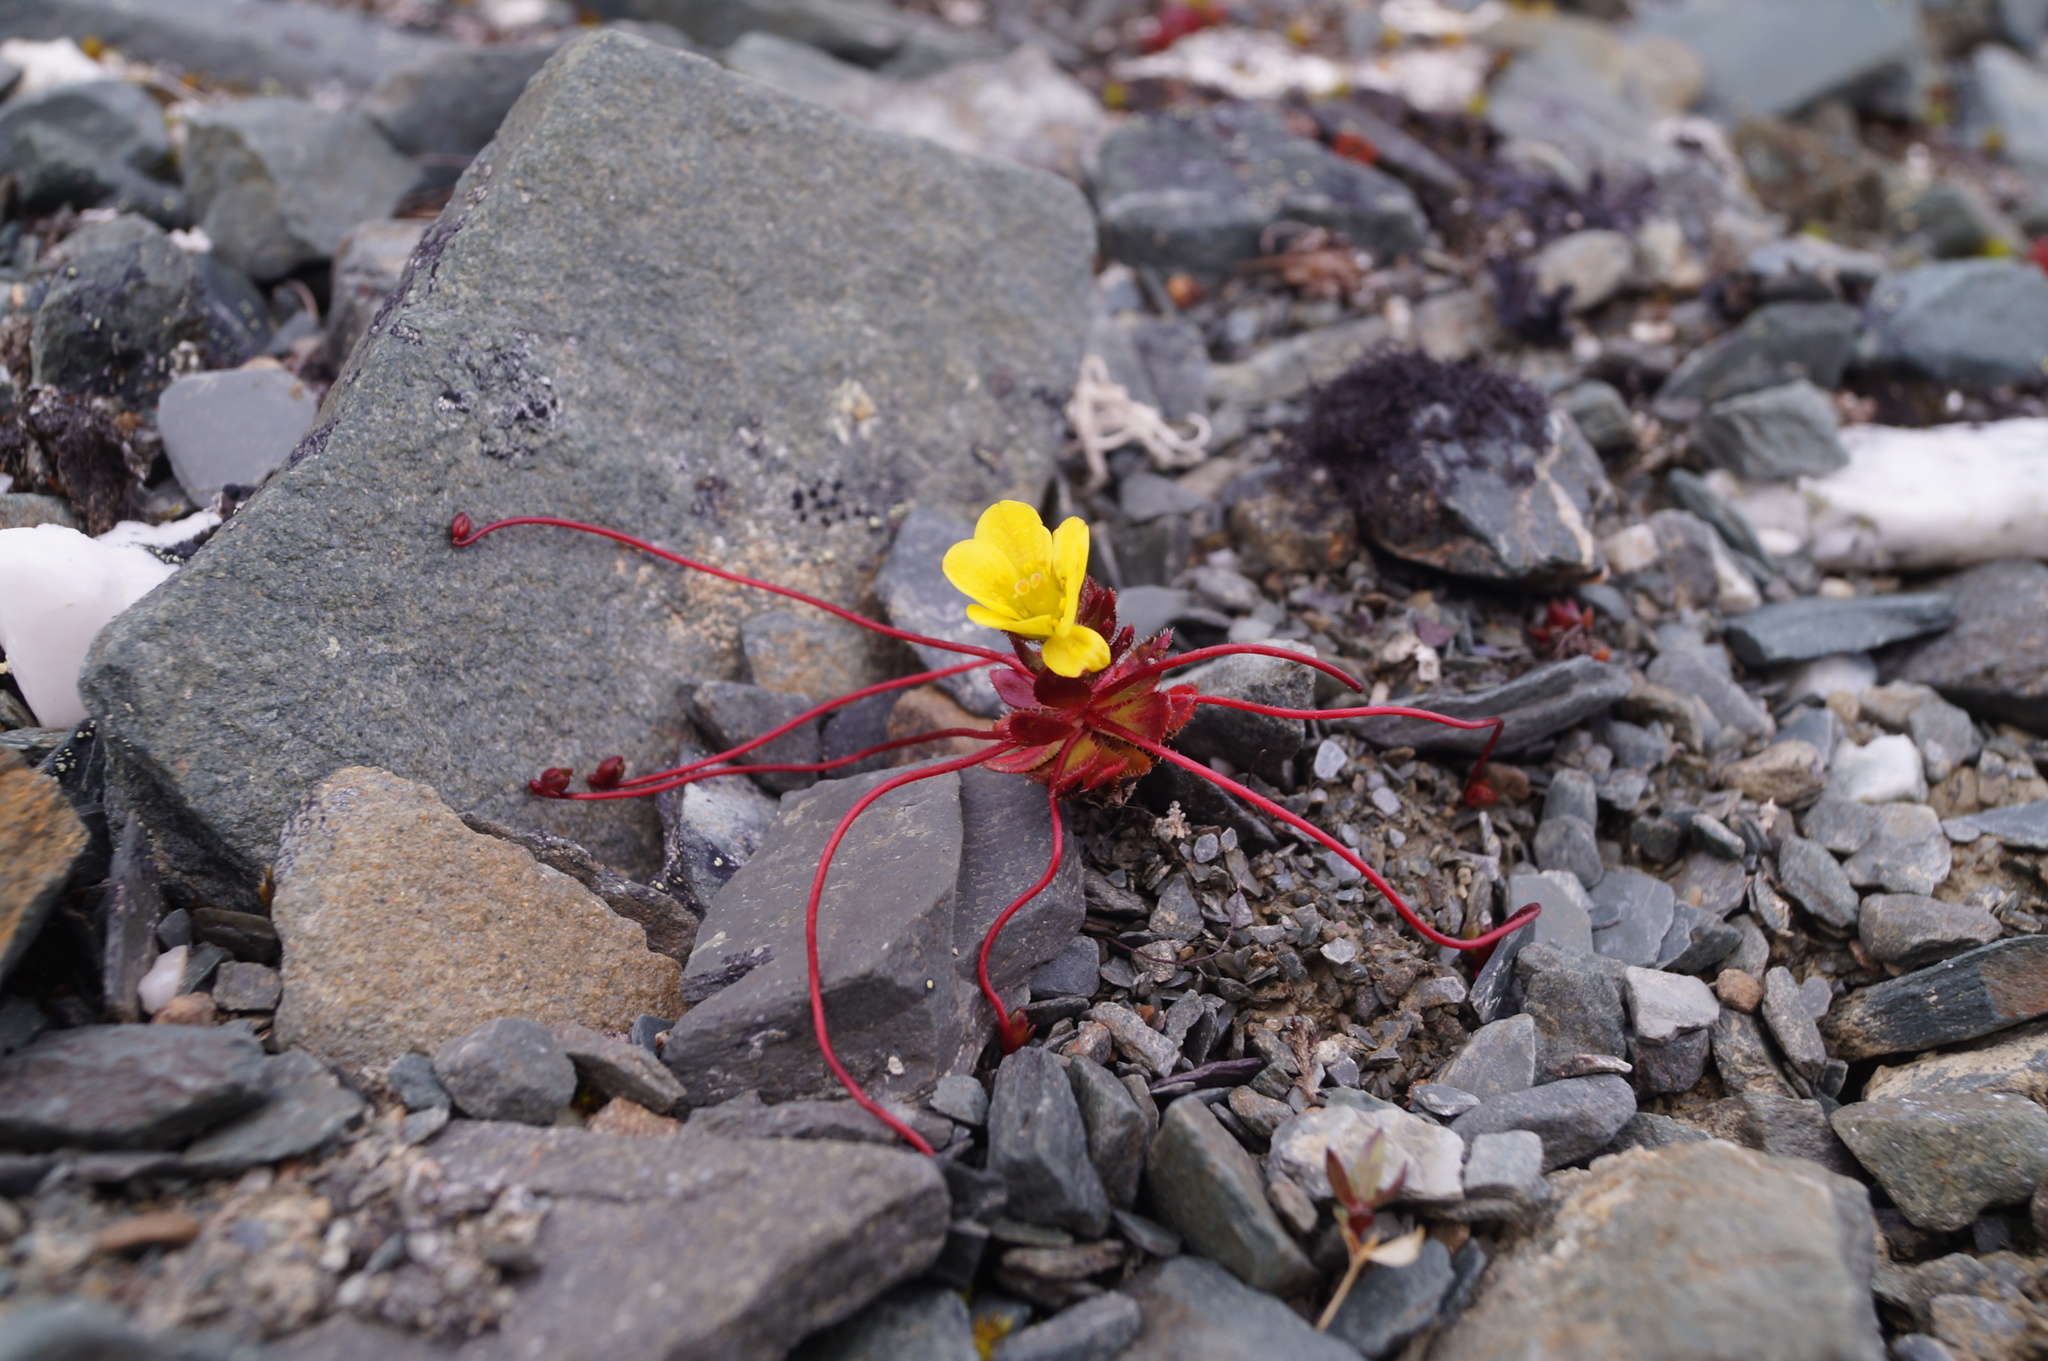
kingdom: Plantae
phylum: Tracheophyta
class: Magnoliopsida
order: Saxifragales
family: Saxifragaceae
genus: Saxifraga
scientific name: Saxifraga platysepala
